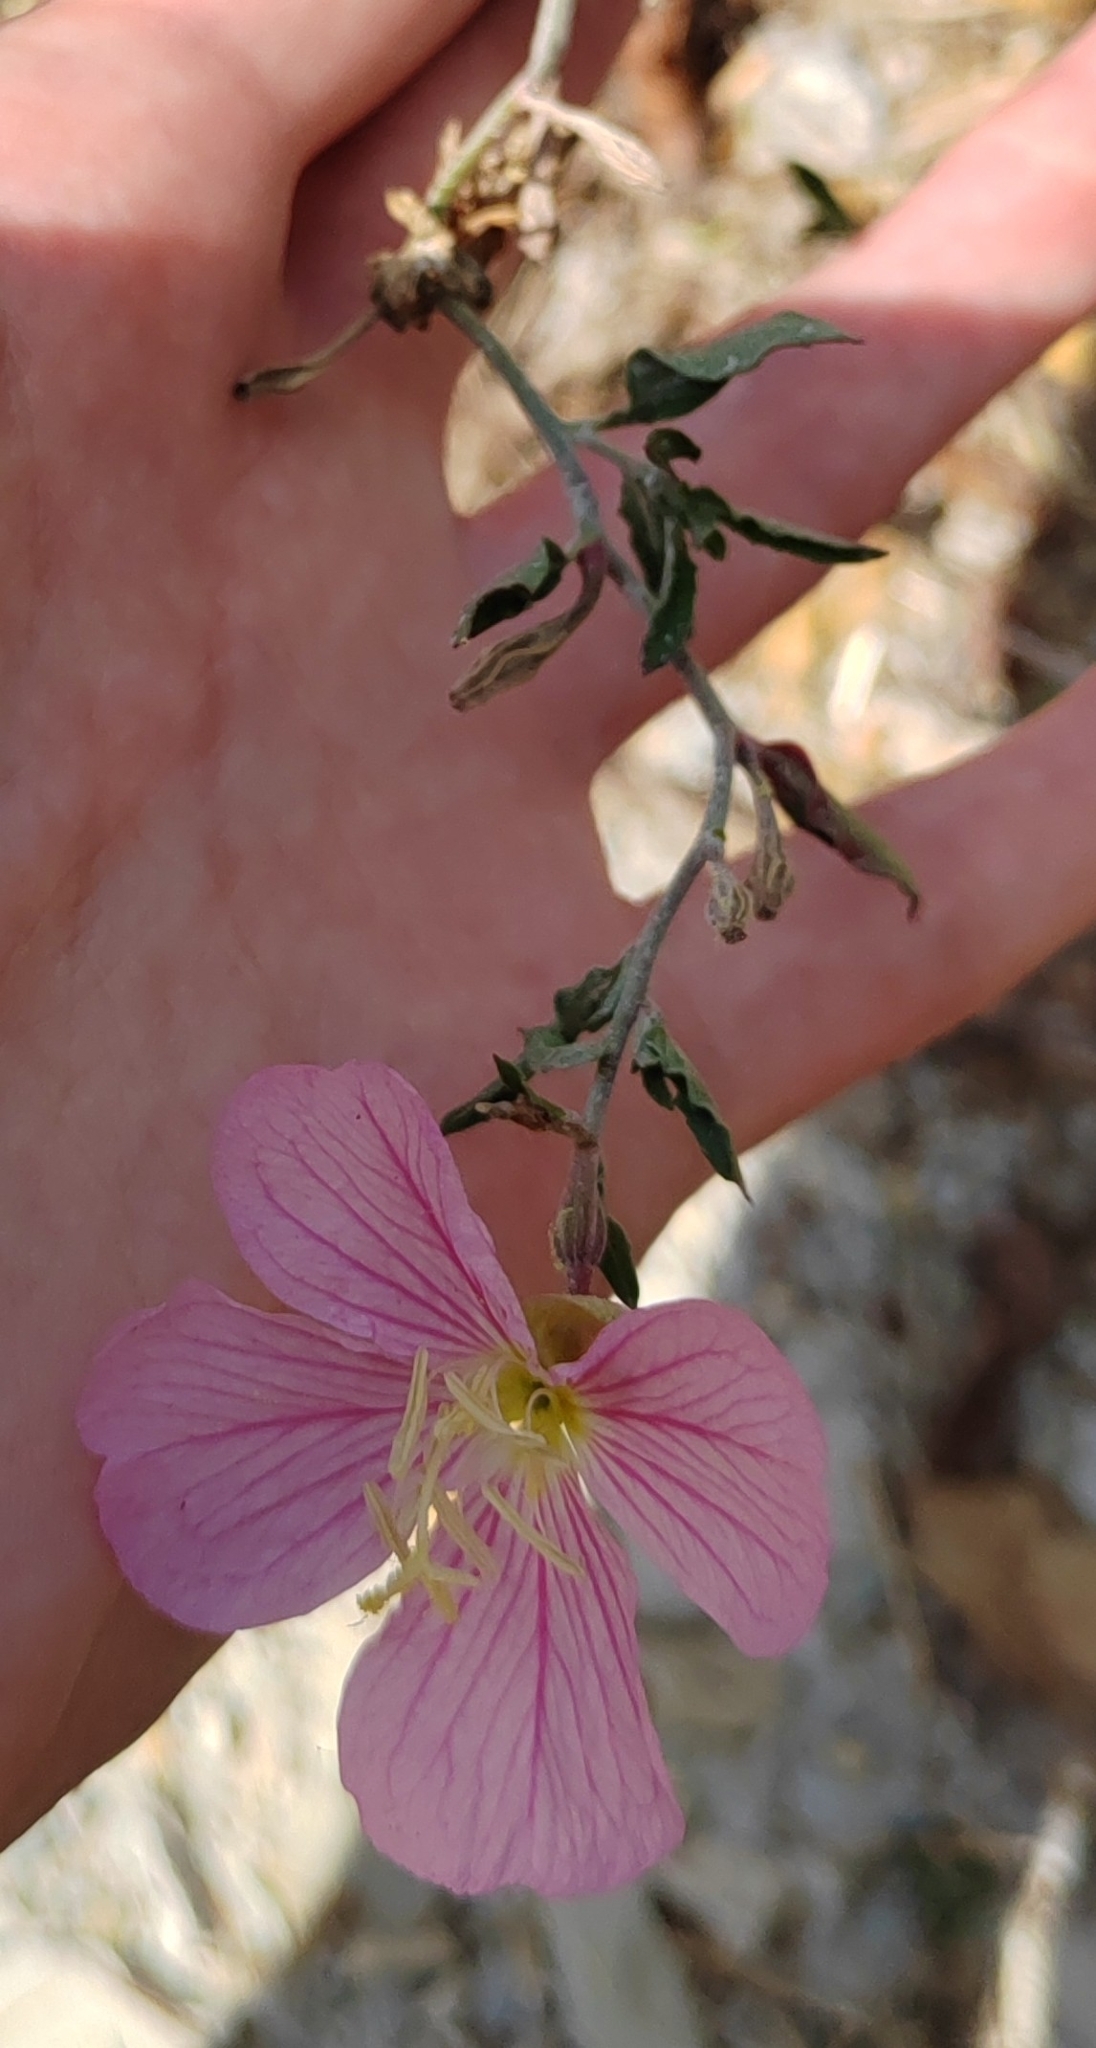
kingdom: Plantae
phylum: Tracheophyta
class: Magnoliopsida
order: Myrtales
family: Onagraceae
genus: Oenothera
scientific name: Oenothera speciosa
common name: White evening-primrose
